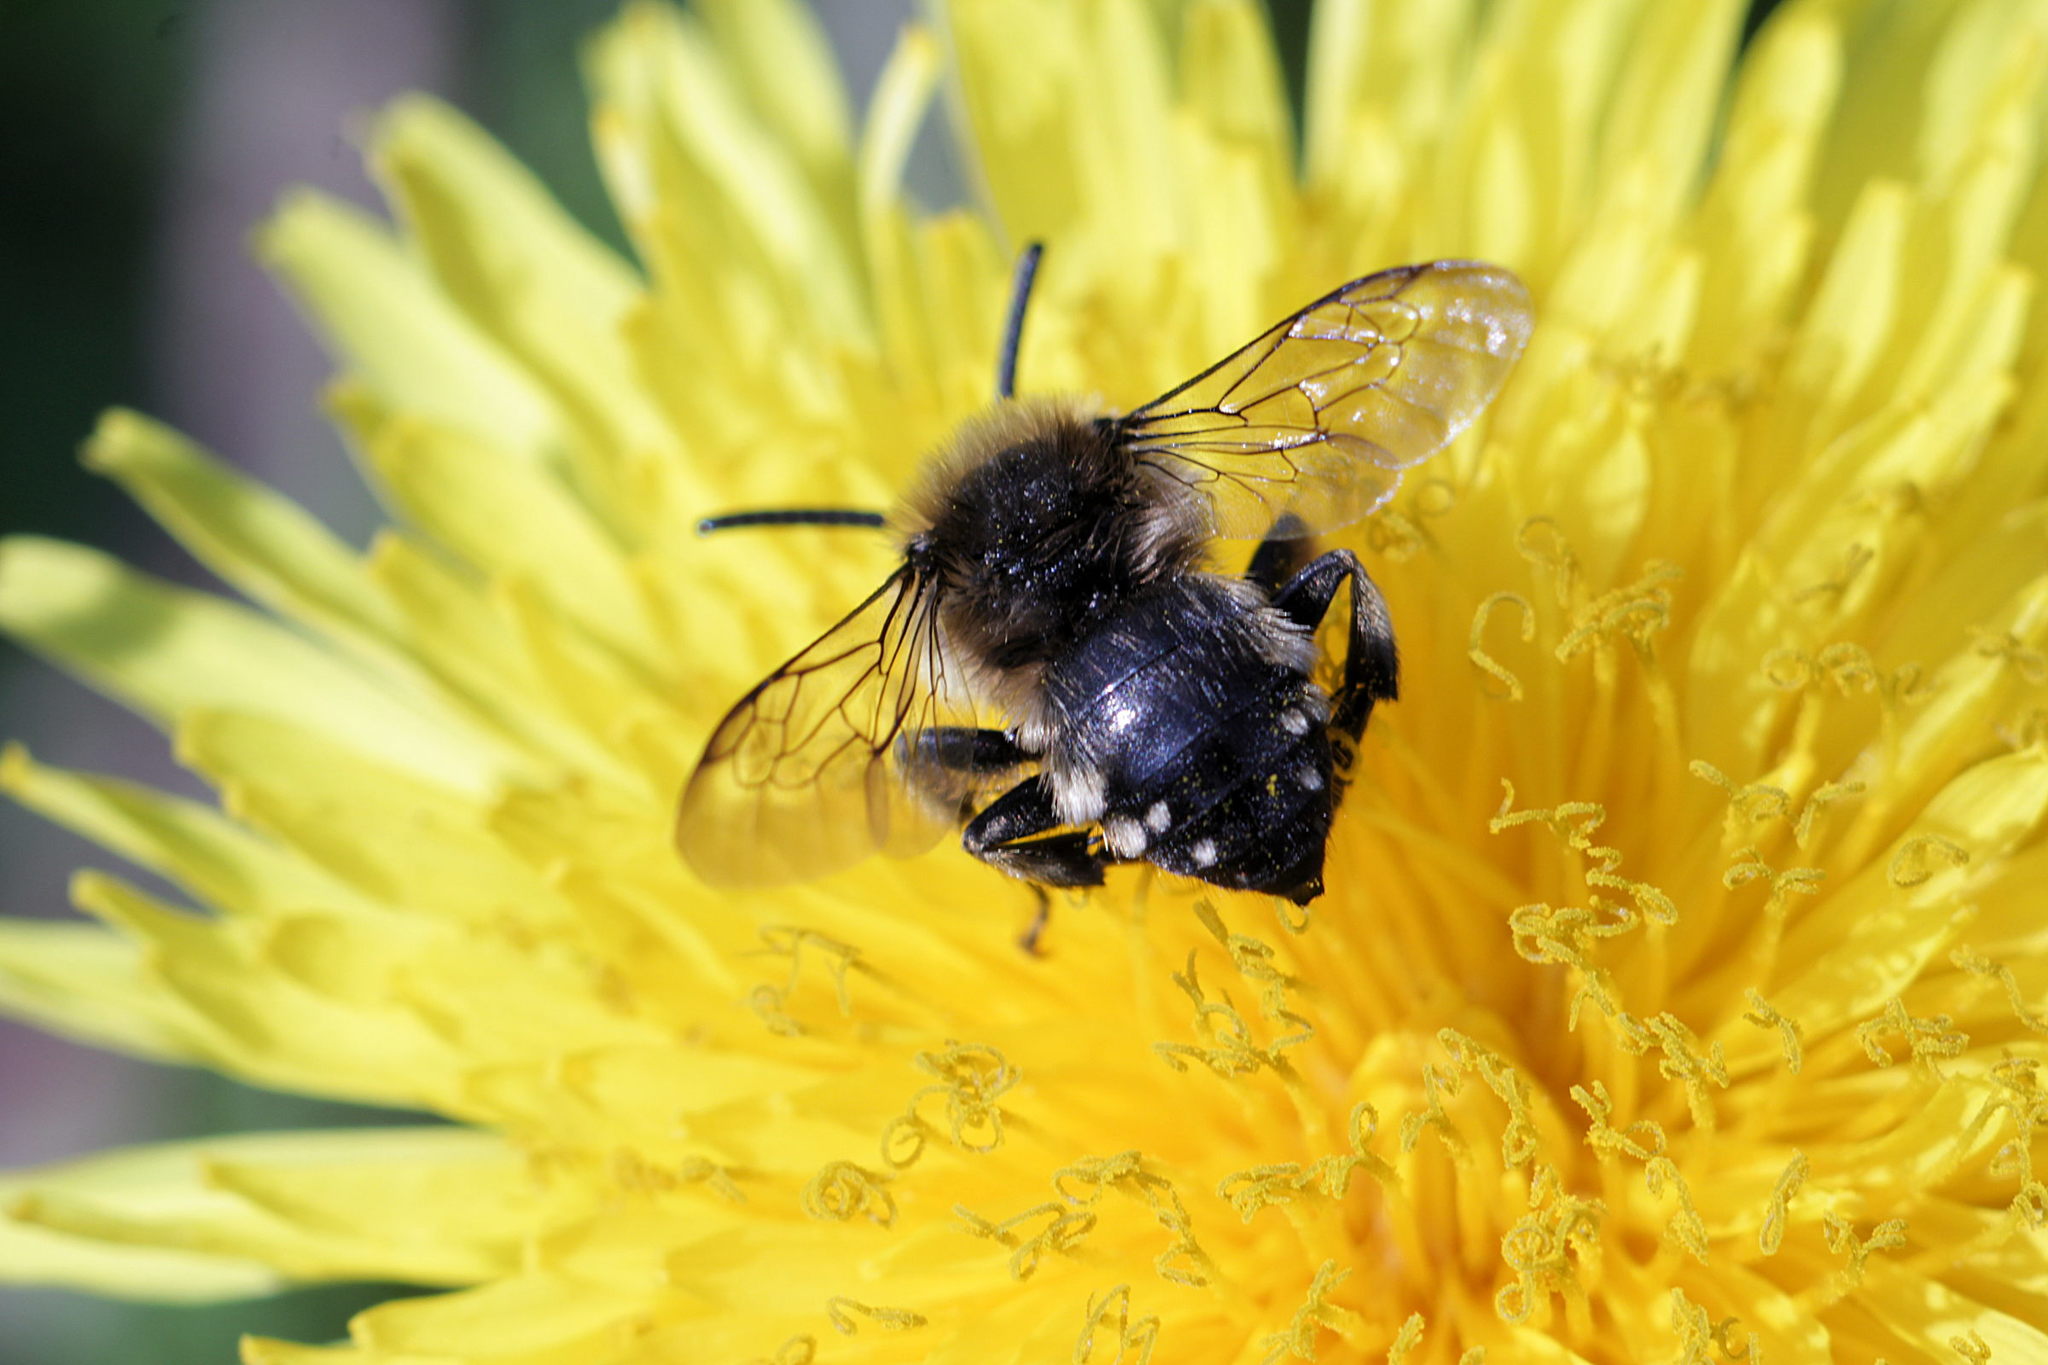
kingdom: Animalia
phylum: Arthropoda
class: Insecta
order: Hymenoptera
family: Apidae
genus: Melecta
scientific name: Melecta albifrons
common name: Common mourning bee
